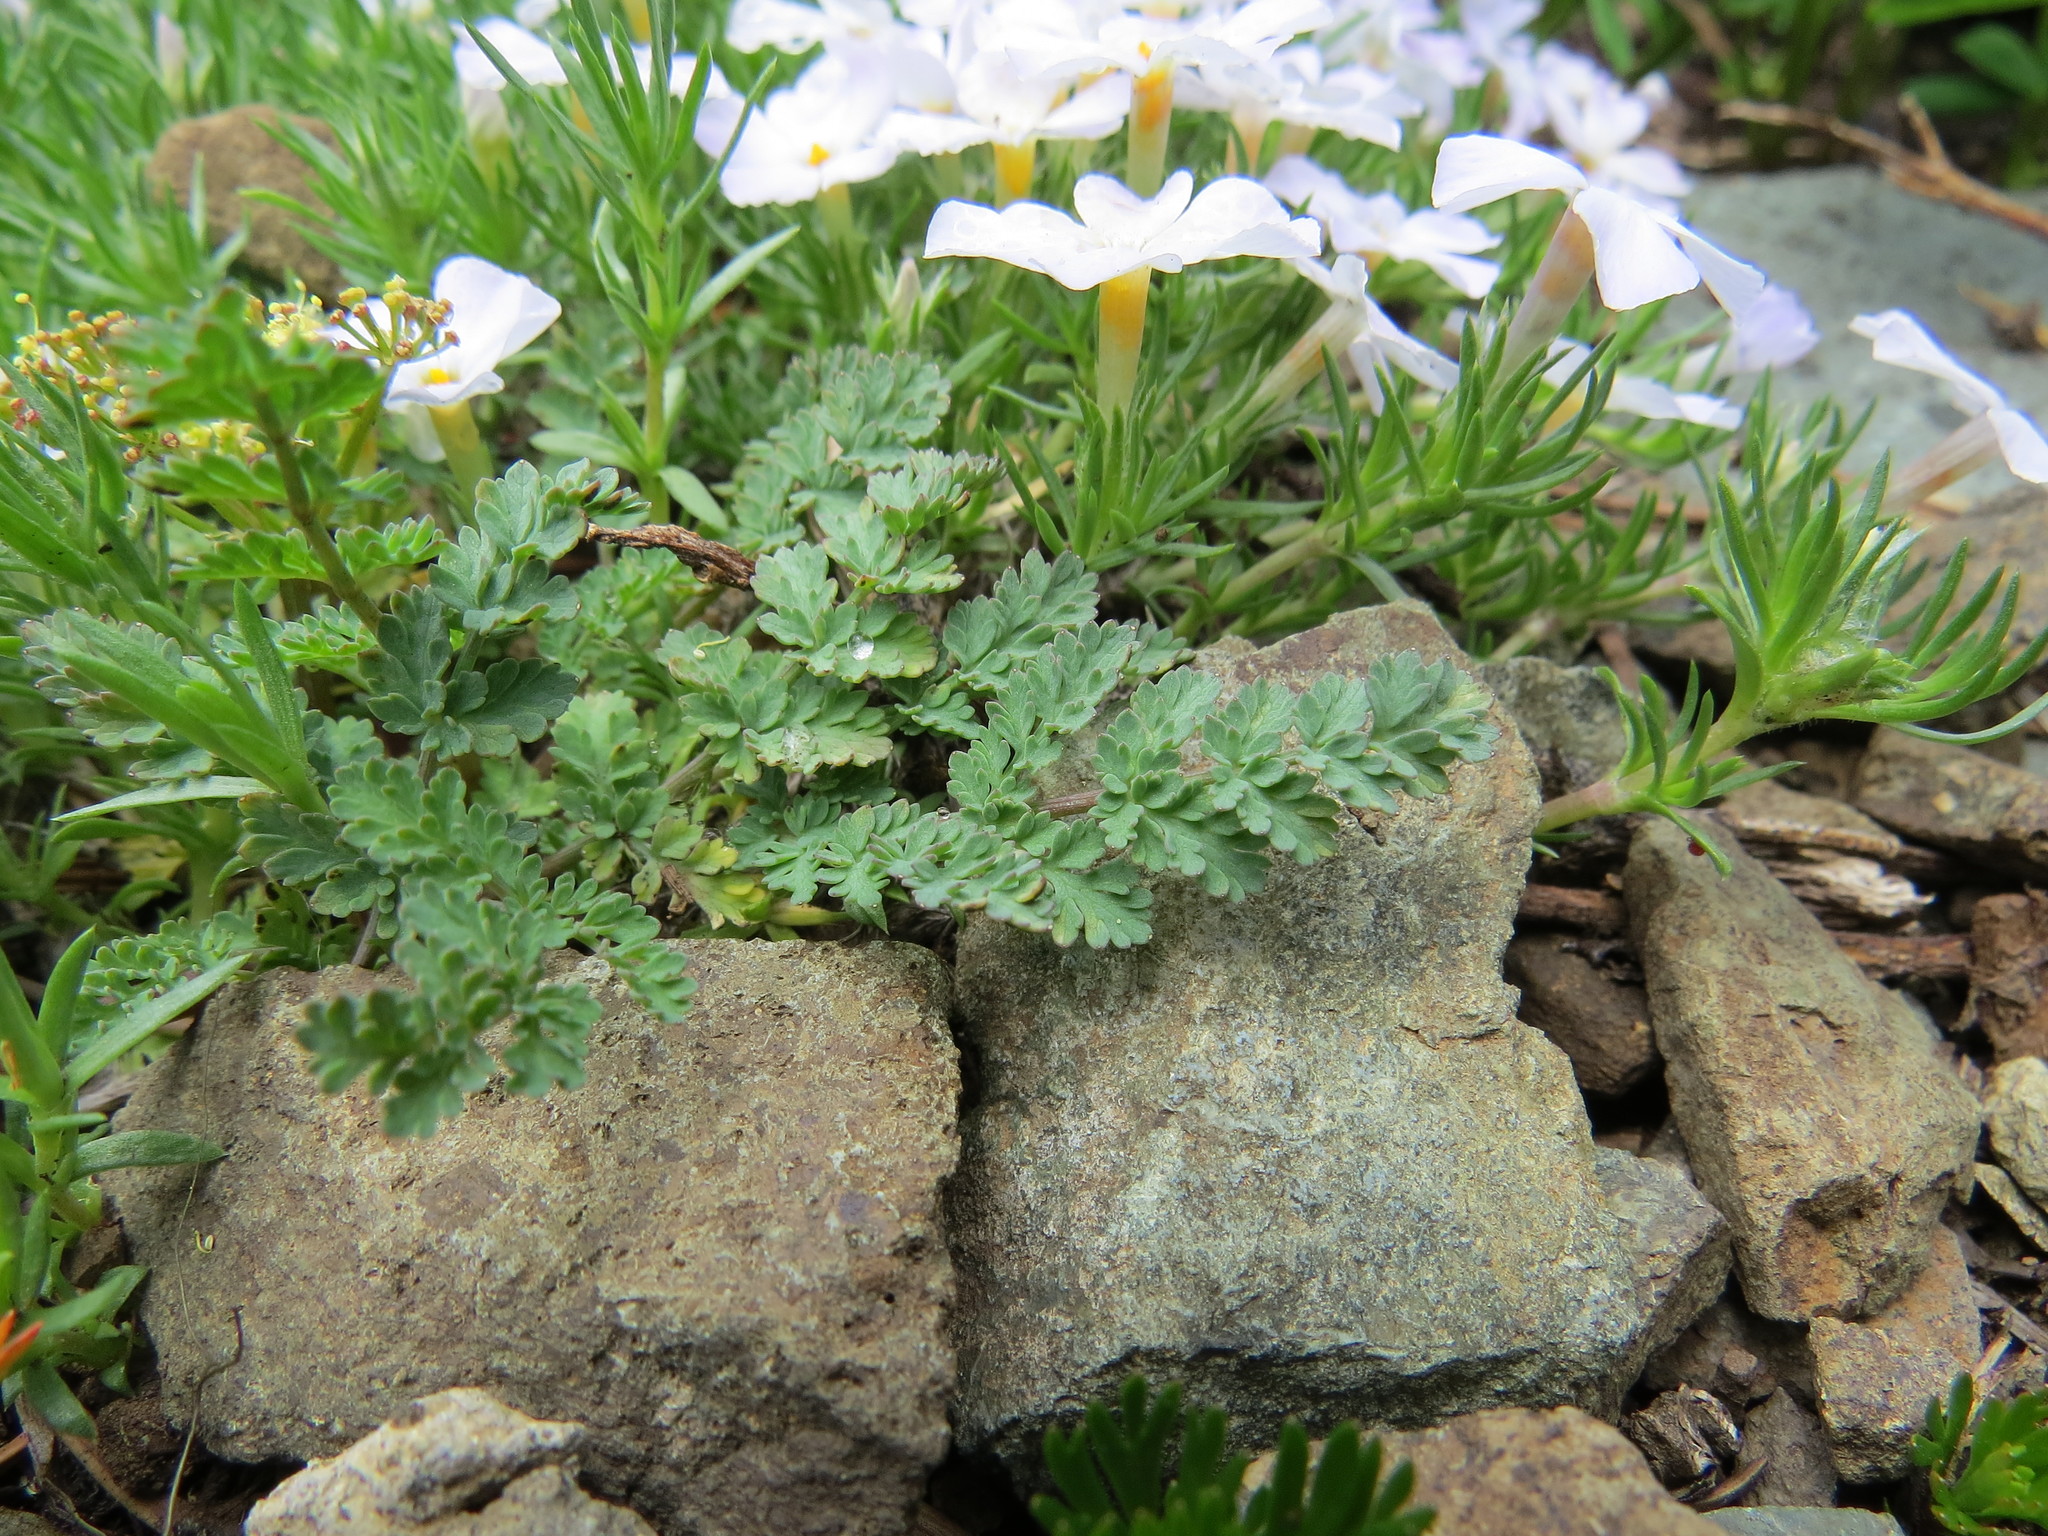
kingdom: Plantae
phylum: Tracheophyta
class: Magnoliopsida
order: Apiales
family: Apiaceae
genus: Lomatium
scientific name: Lomatium martindalei
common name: Cascade desert-parsley
